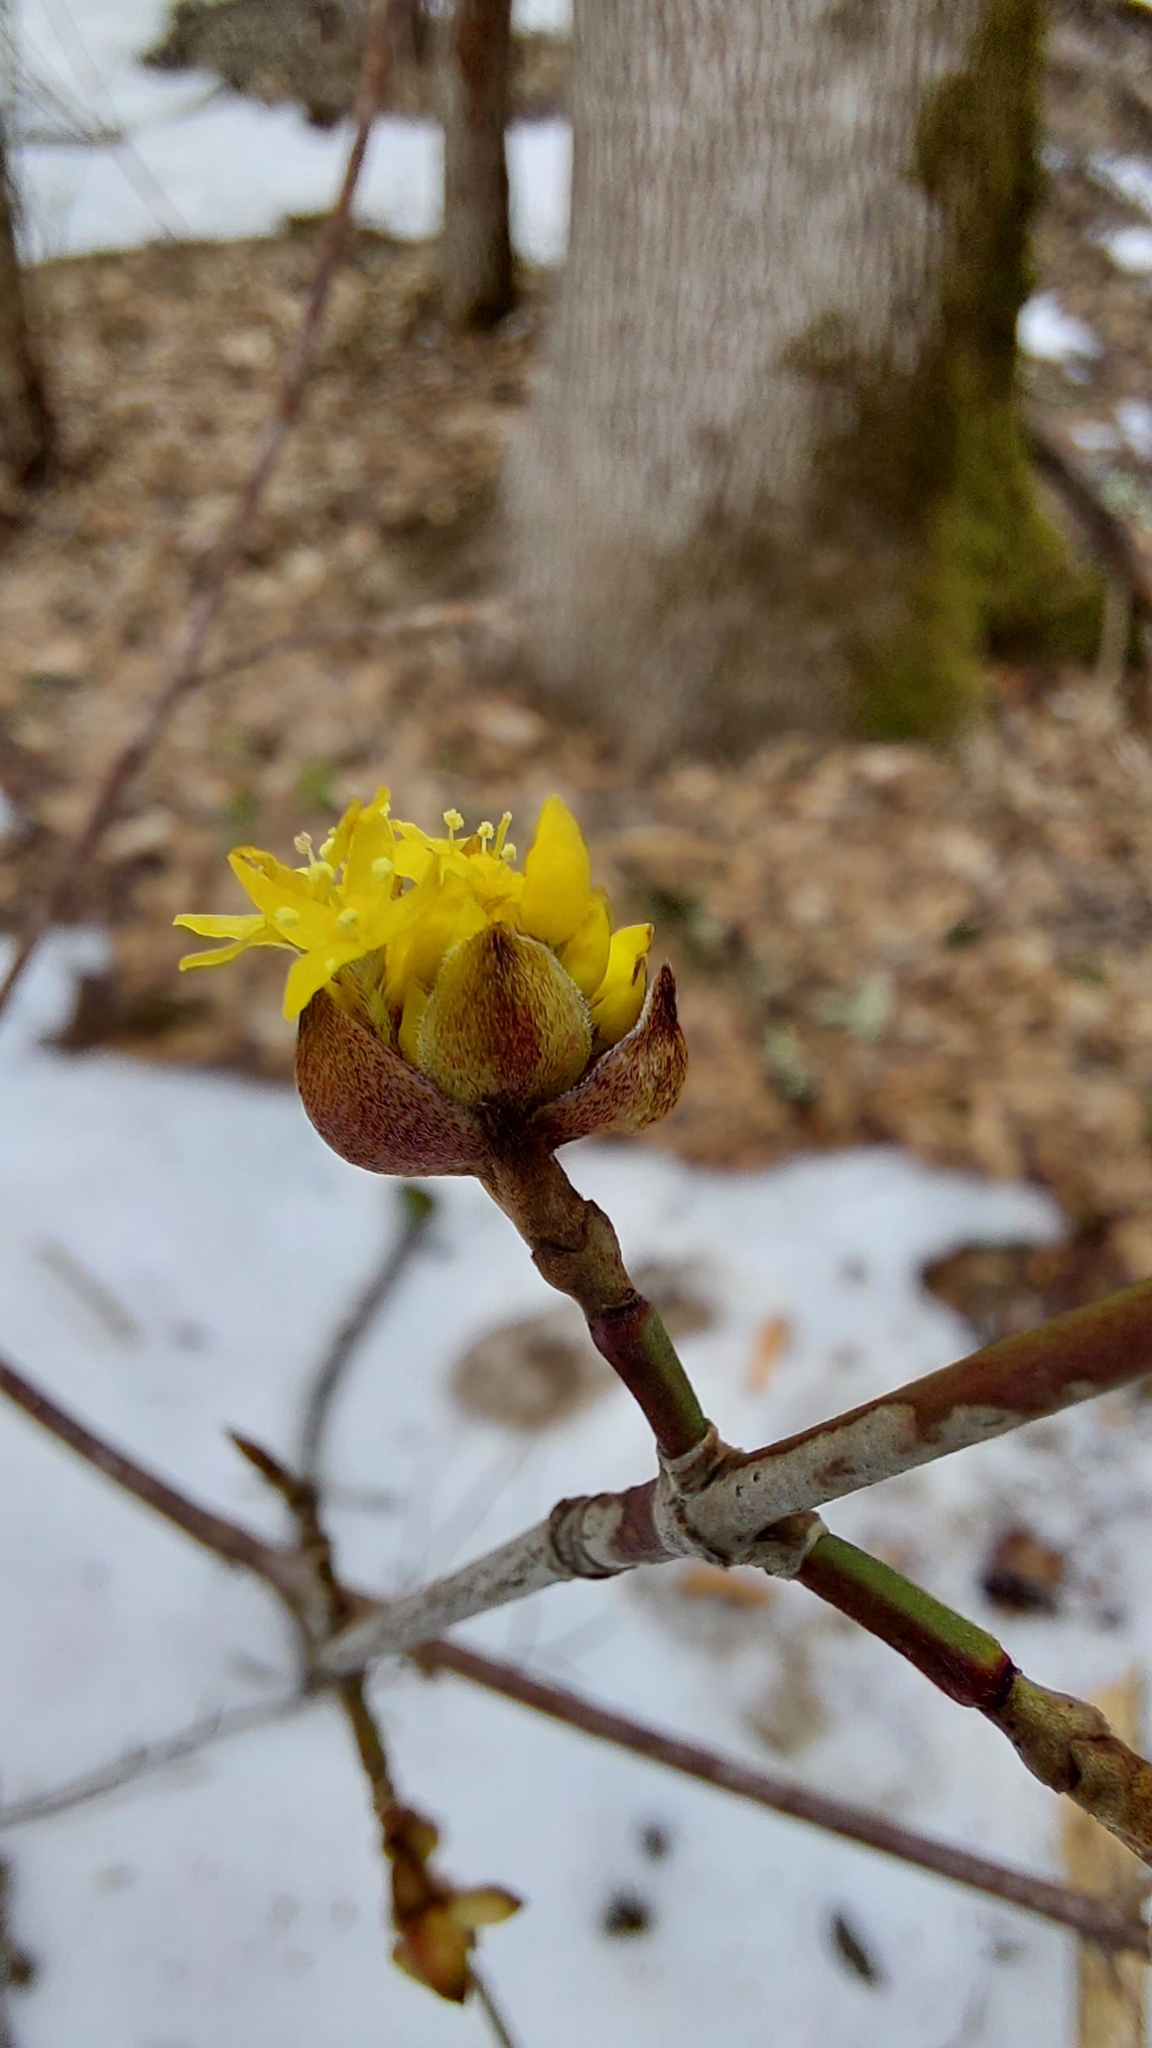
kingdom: Plantae
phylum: Tracheophyta
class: Magnoliopsida
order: Cornales
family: Cornaceae
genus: Cornus
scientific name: Cornus mas
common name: Cornelian-cherry
